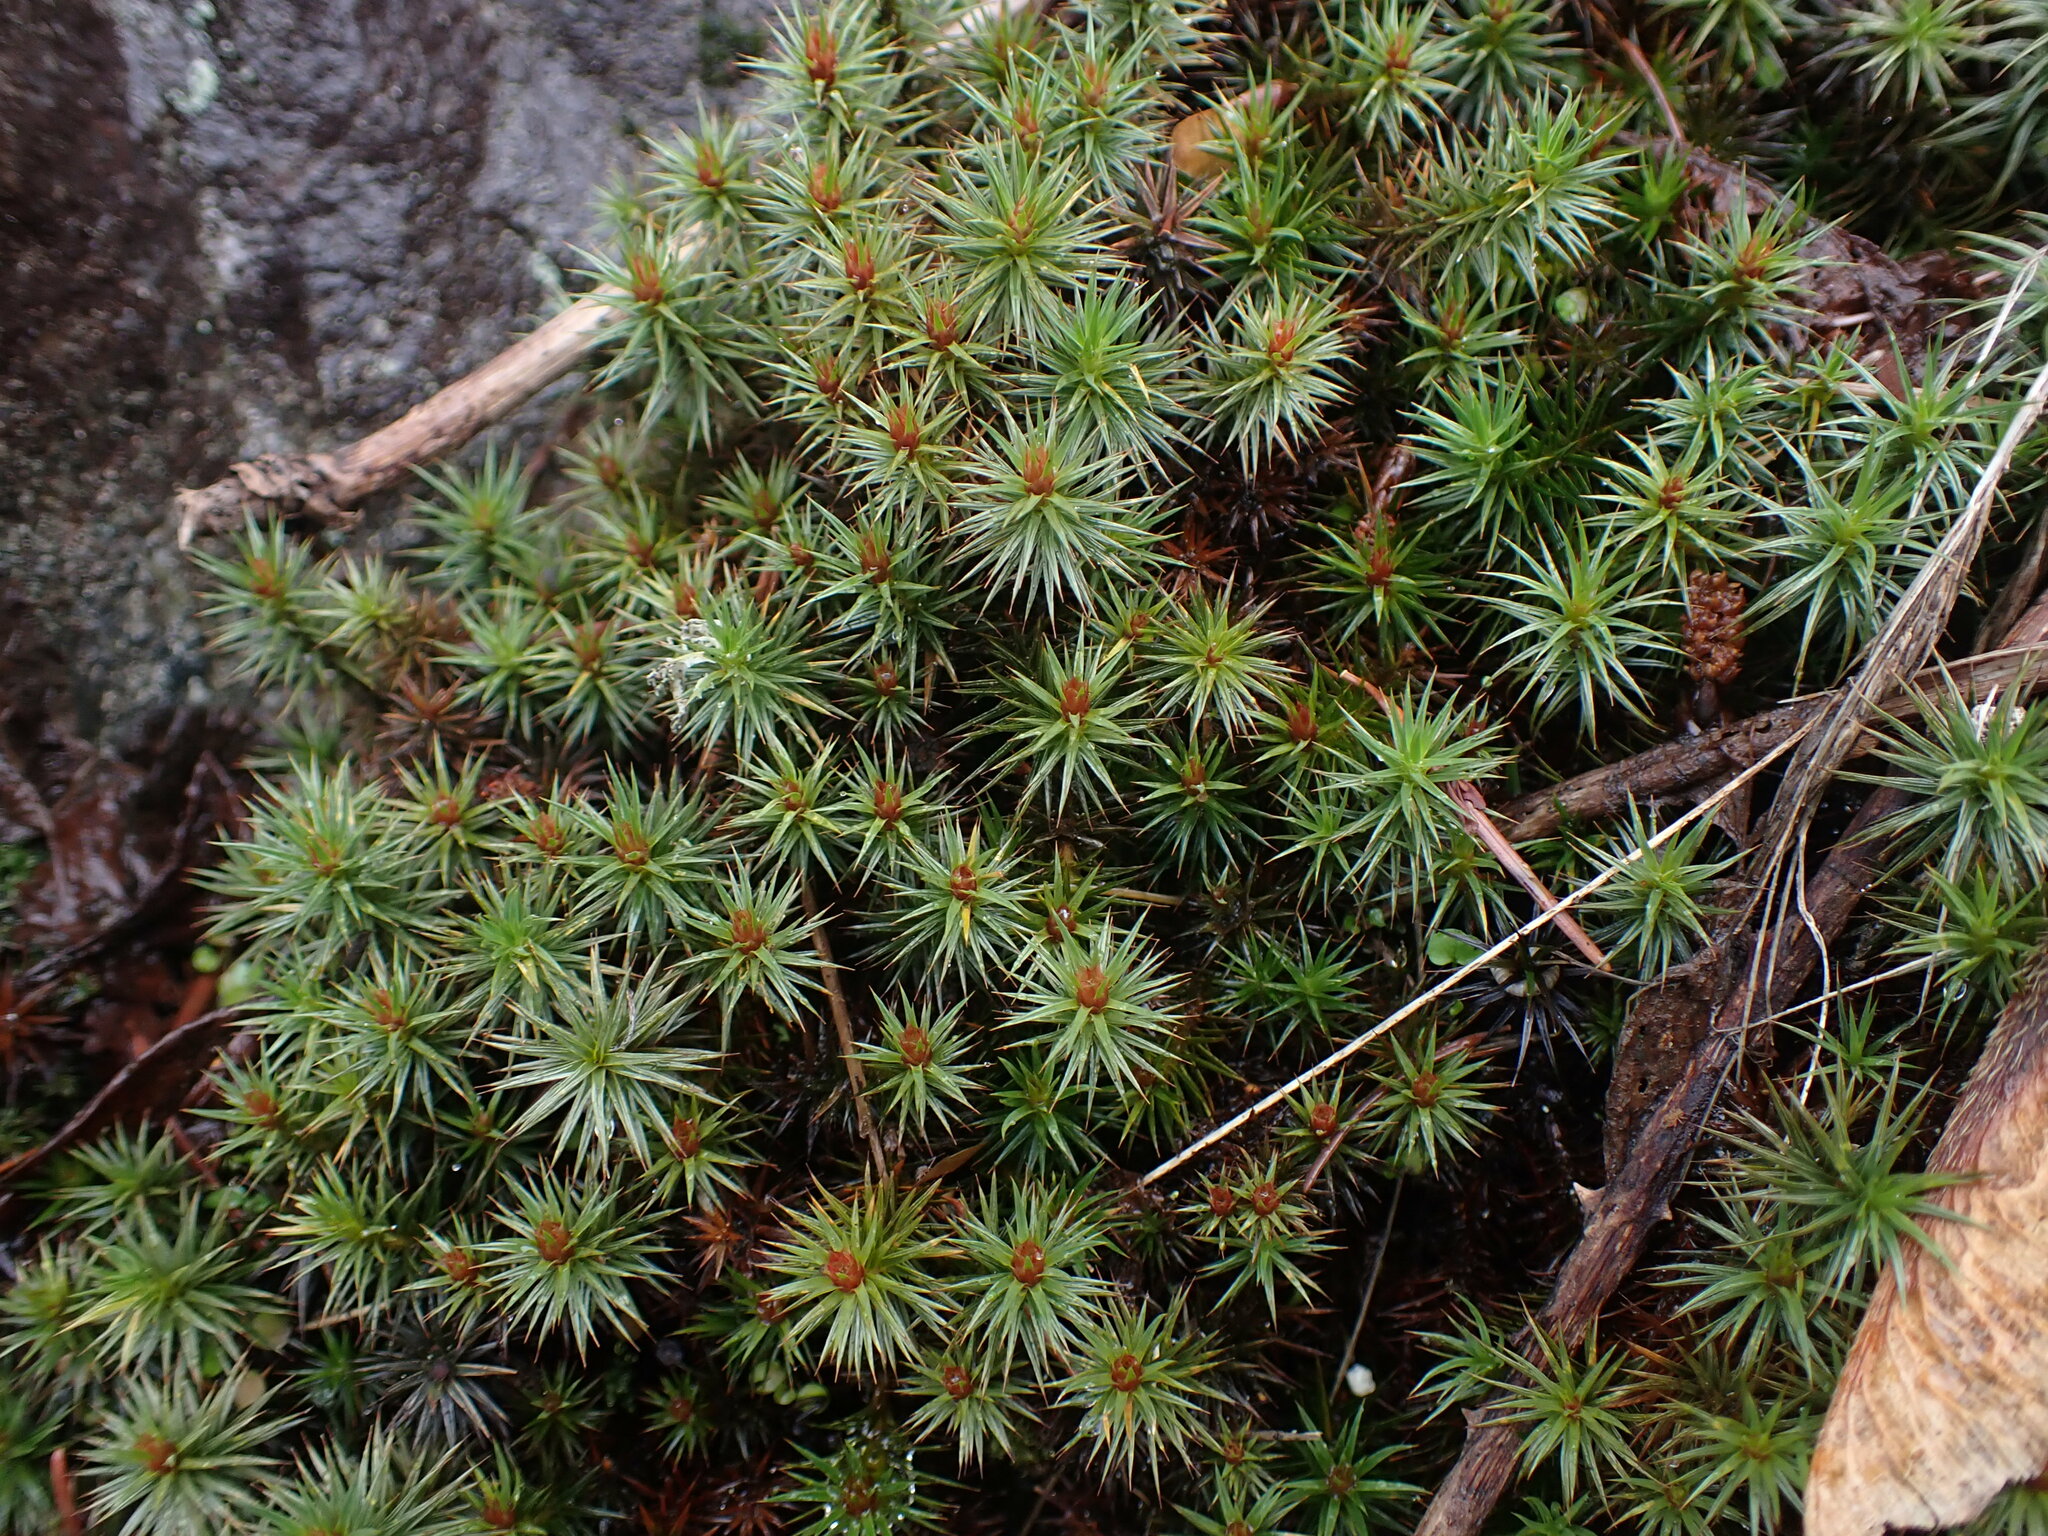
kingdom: Plantae
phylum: Bryophyta
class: Polytrichopsida
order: Polytrichales
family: Polytrichaceae
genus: Polytrichum
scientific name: Polytrichum juniperinum
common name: Juniper haircap moss
